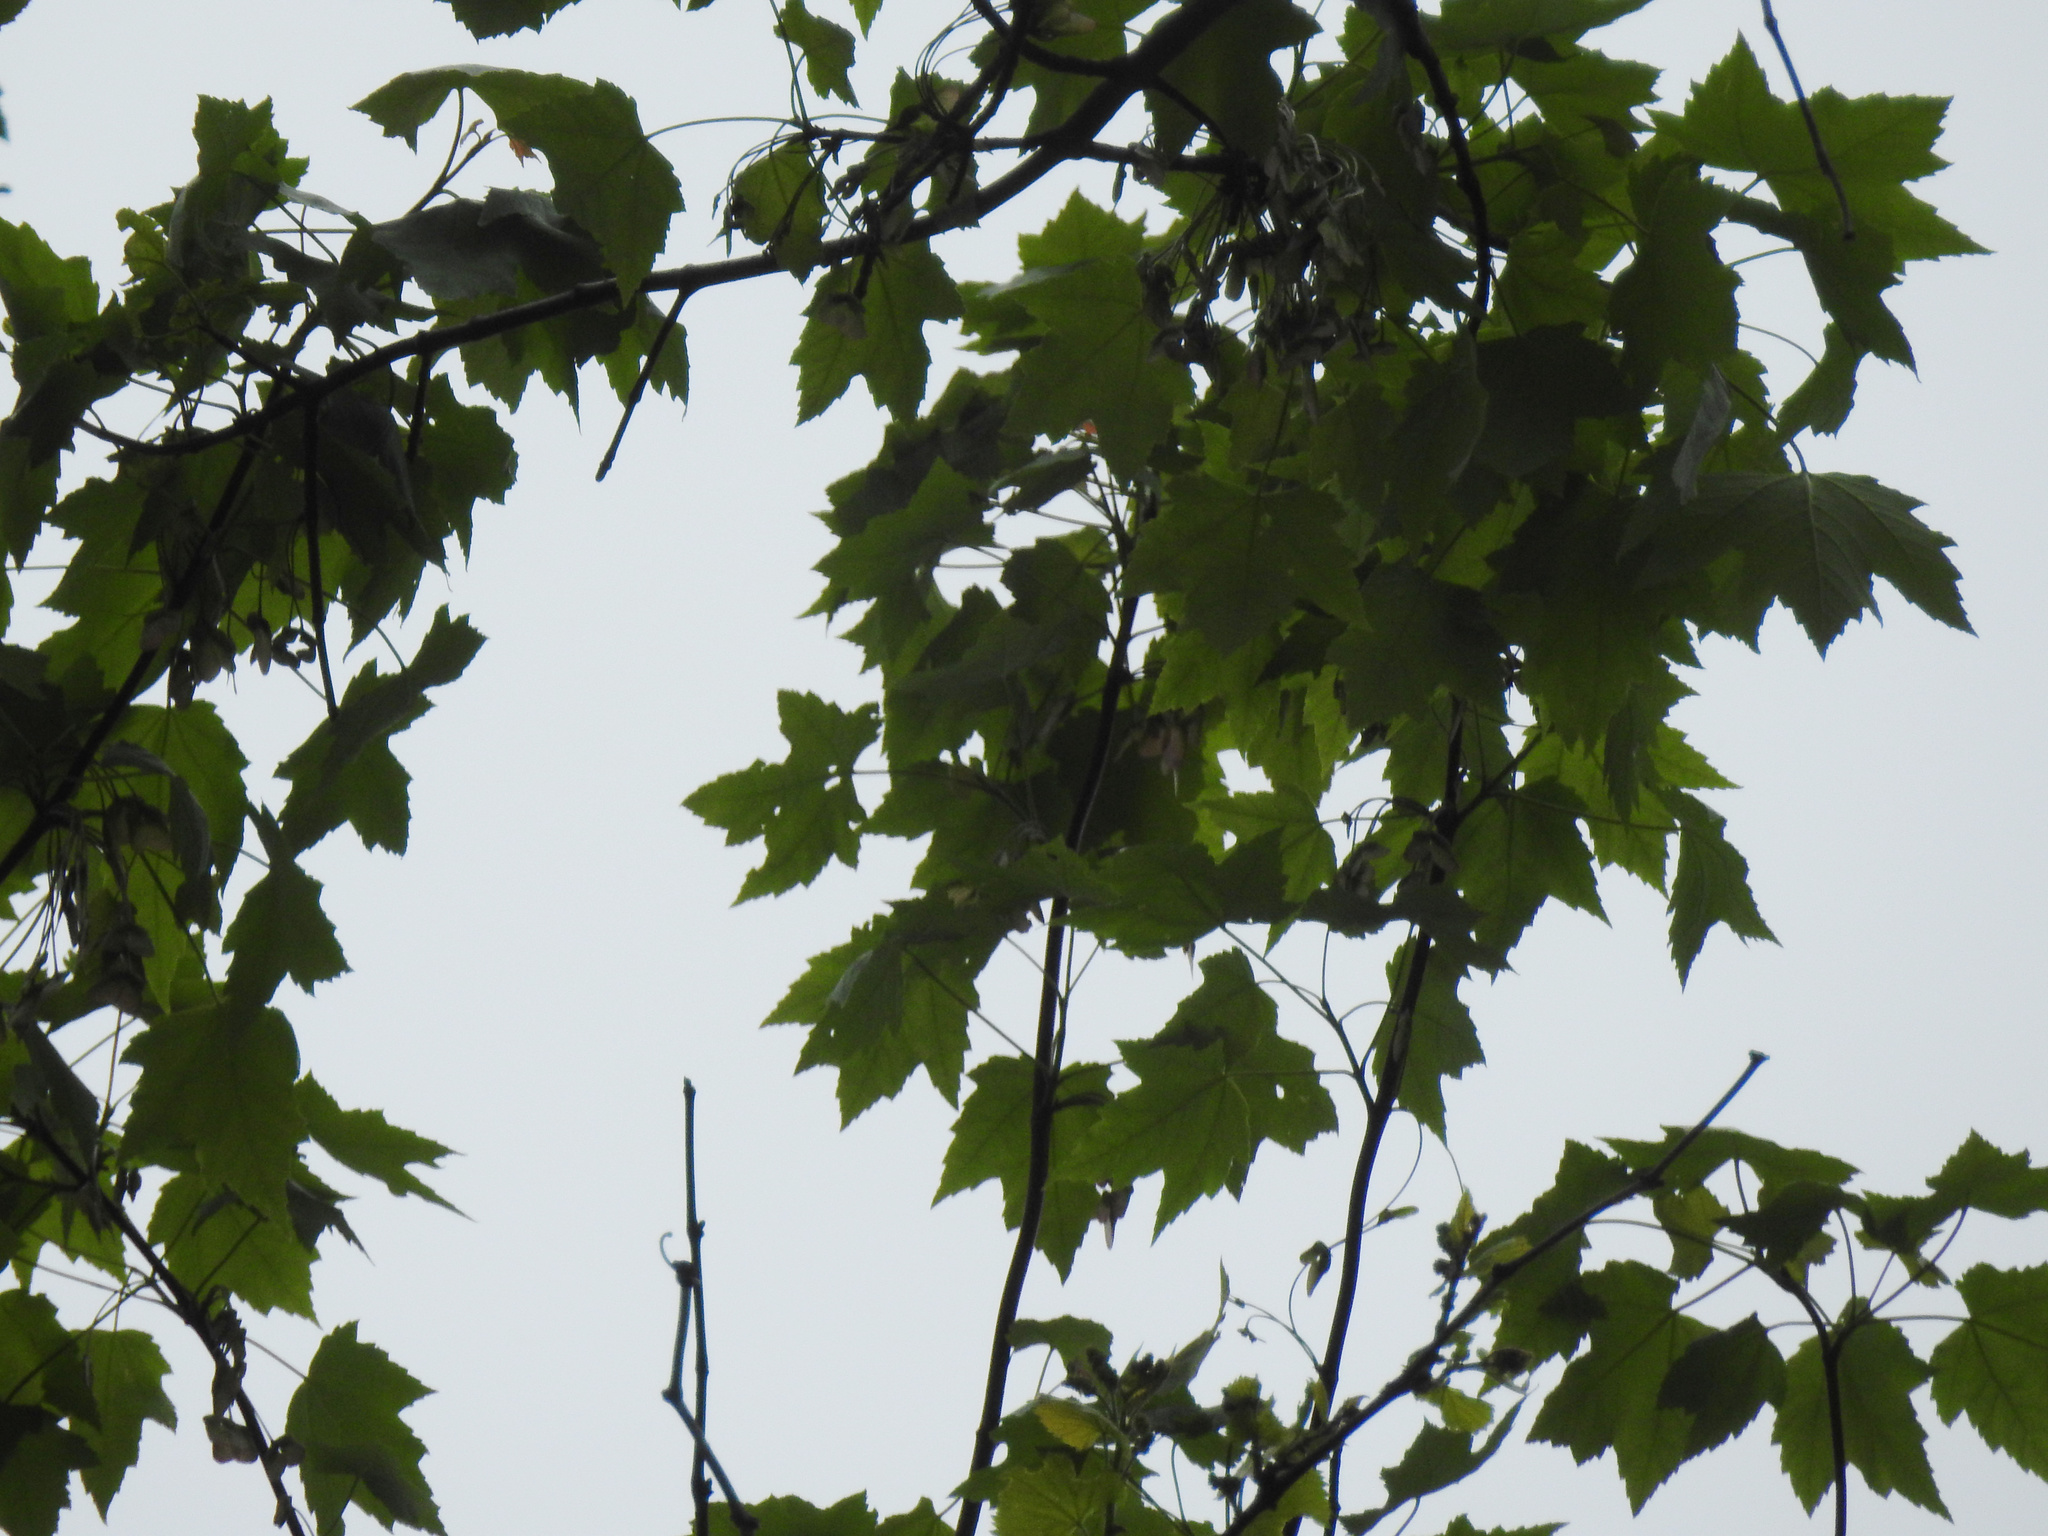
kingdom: Plantae
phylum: Tracheophyta
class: Magnoliopsida
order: Sapindales
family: Sapindaceae
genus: Acer
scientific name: Acer rubrum
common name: Red maple
